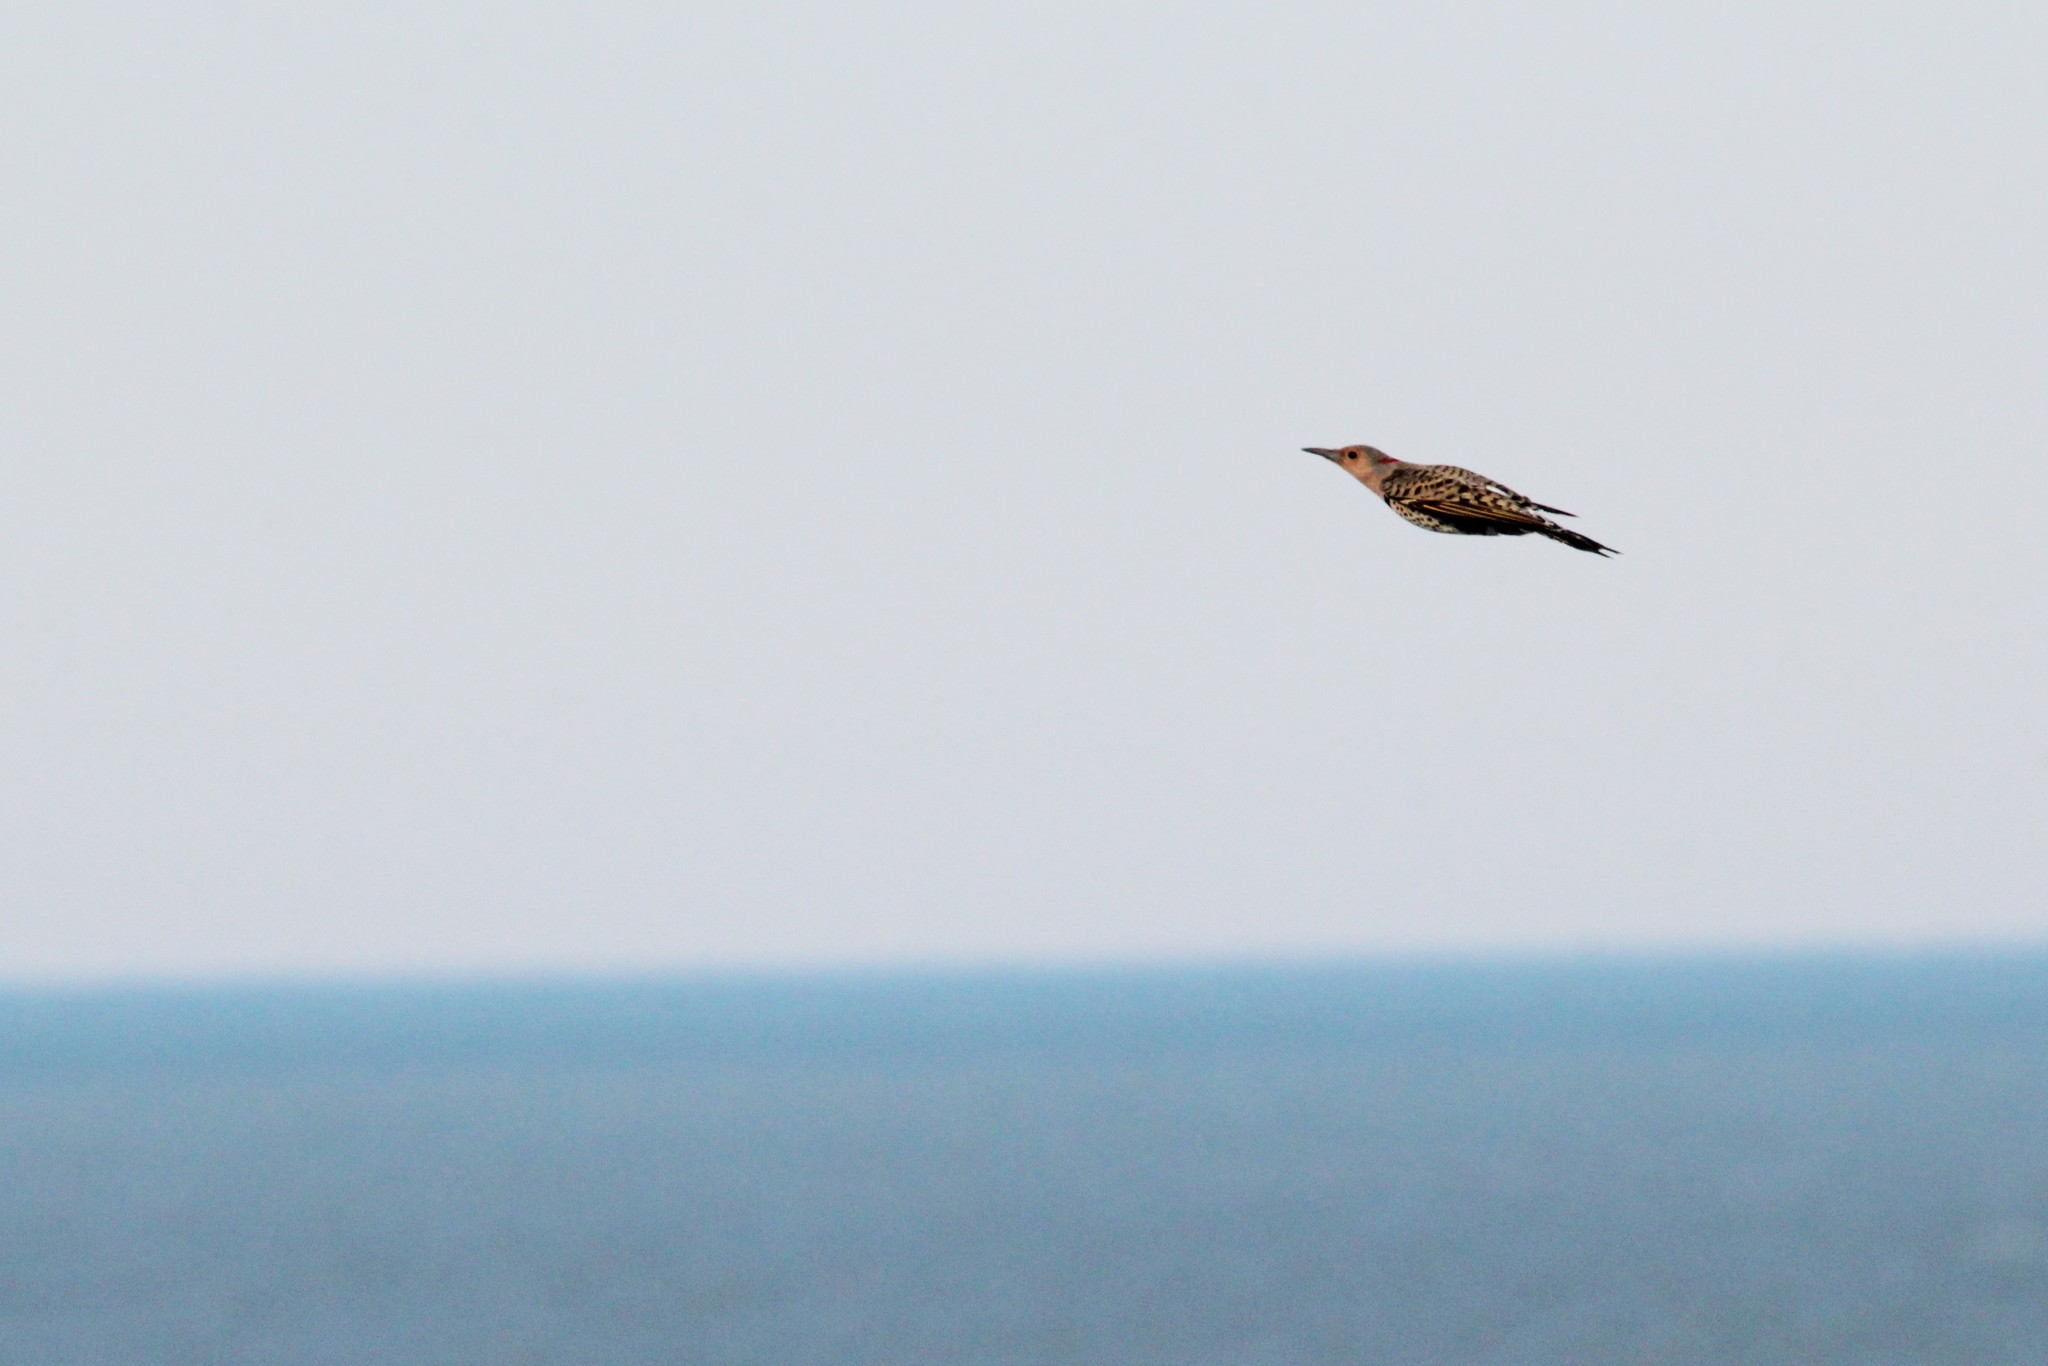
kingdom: Animalia
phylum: Chordata
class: Aves
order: Piciformes
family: Picidae
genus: Colaptes
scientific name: Colaptes auratus
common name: Northern flicker
